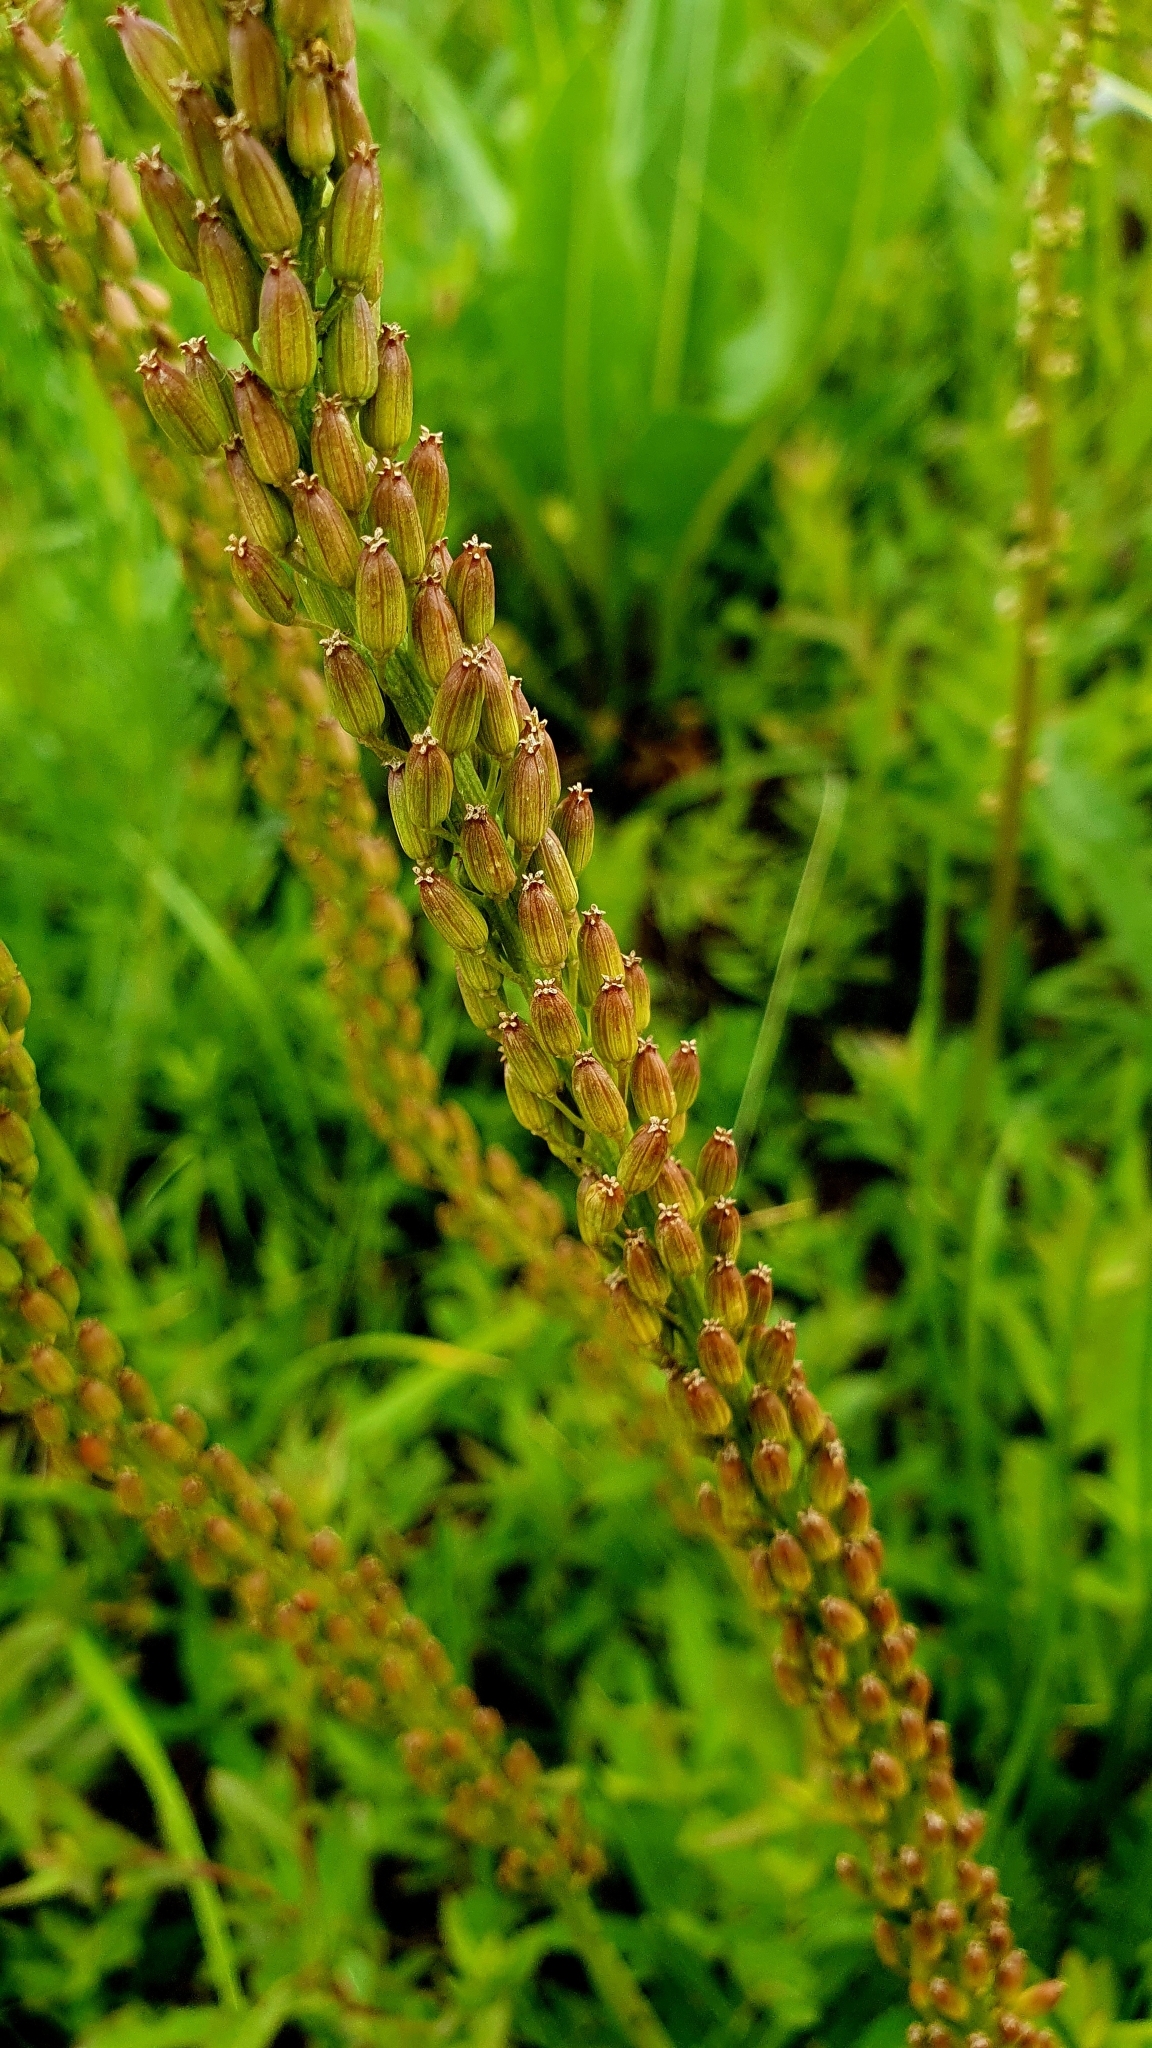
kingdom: Plantae
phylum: Tracheophyta
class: Liliopsida
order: Alismatales
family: Juncaginaceae
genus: Triglochin
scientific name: Triglochin maritima
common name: Sea arrowgrass
